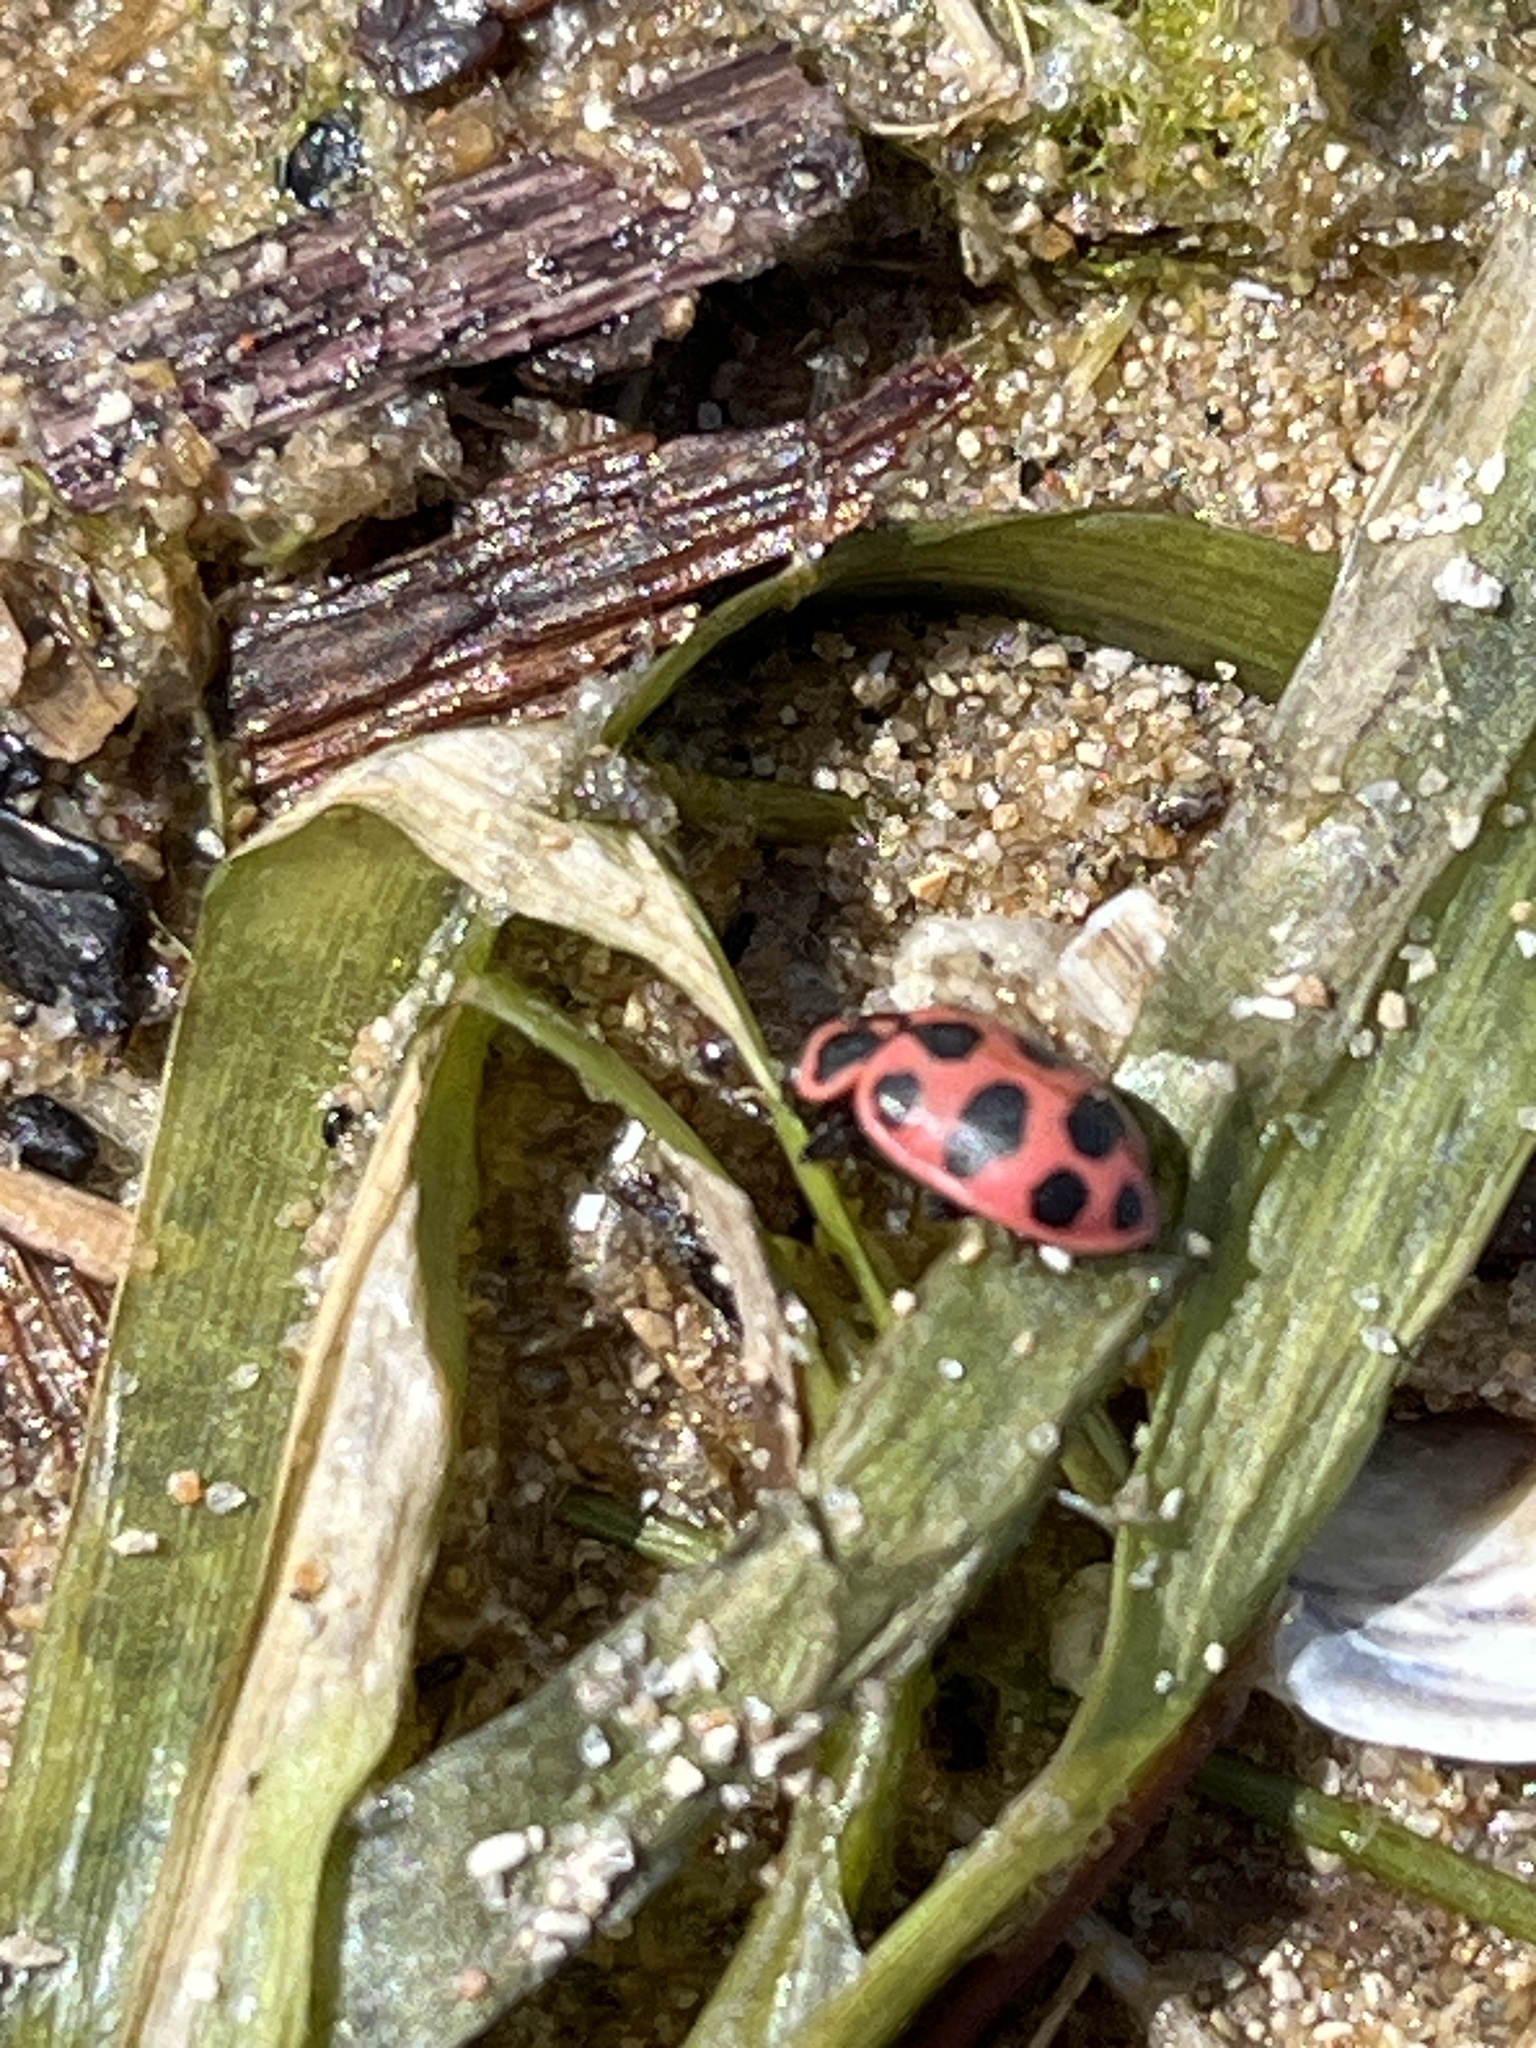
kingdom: Animalia
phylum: Arthropoda
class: Insecta
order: Coleoptera
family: Coccinellidae
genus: Coleomegilla
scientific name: Coleomegilla maculata
